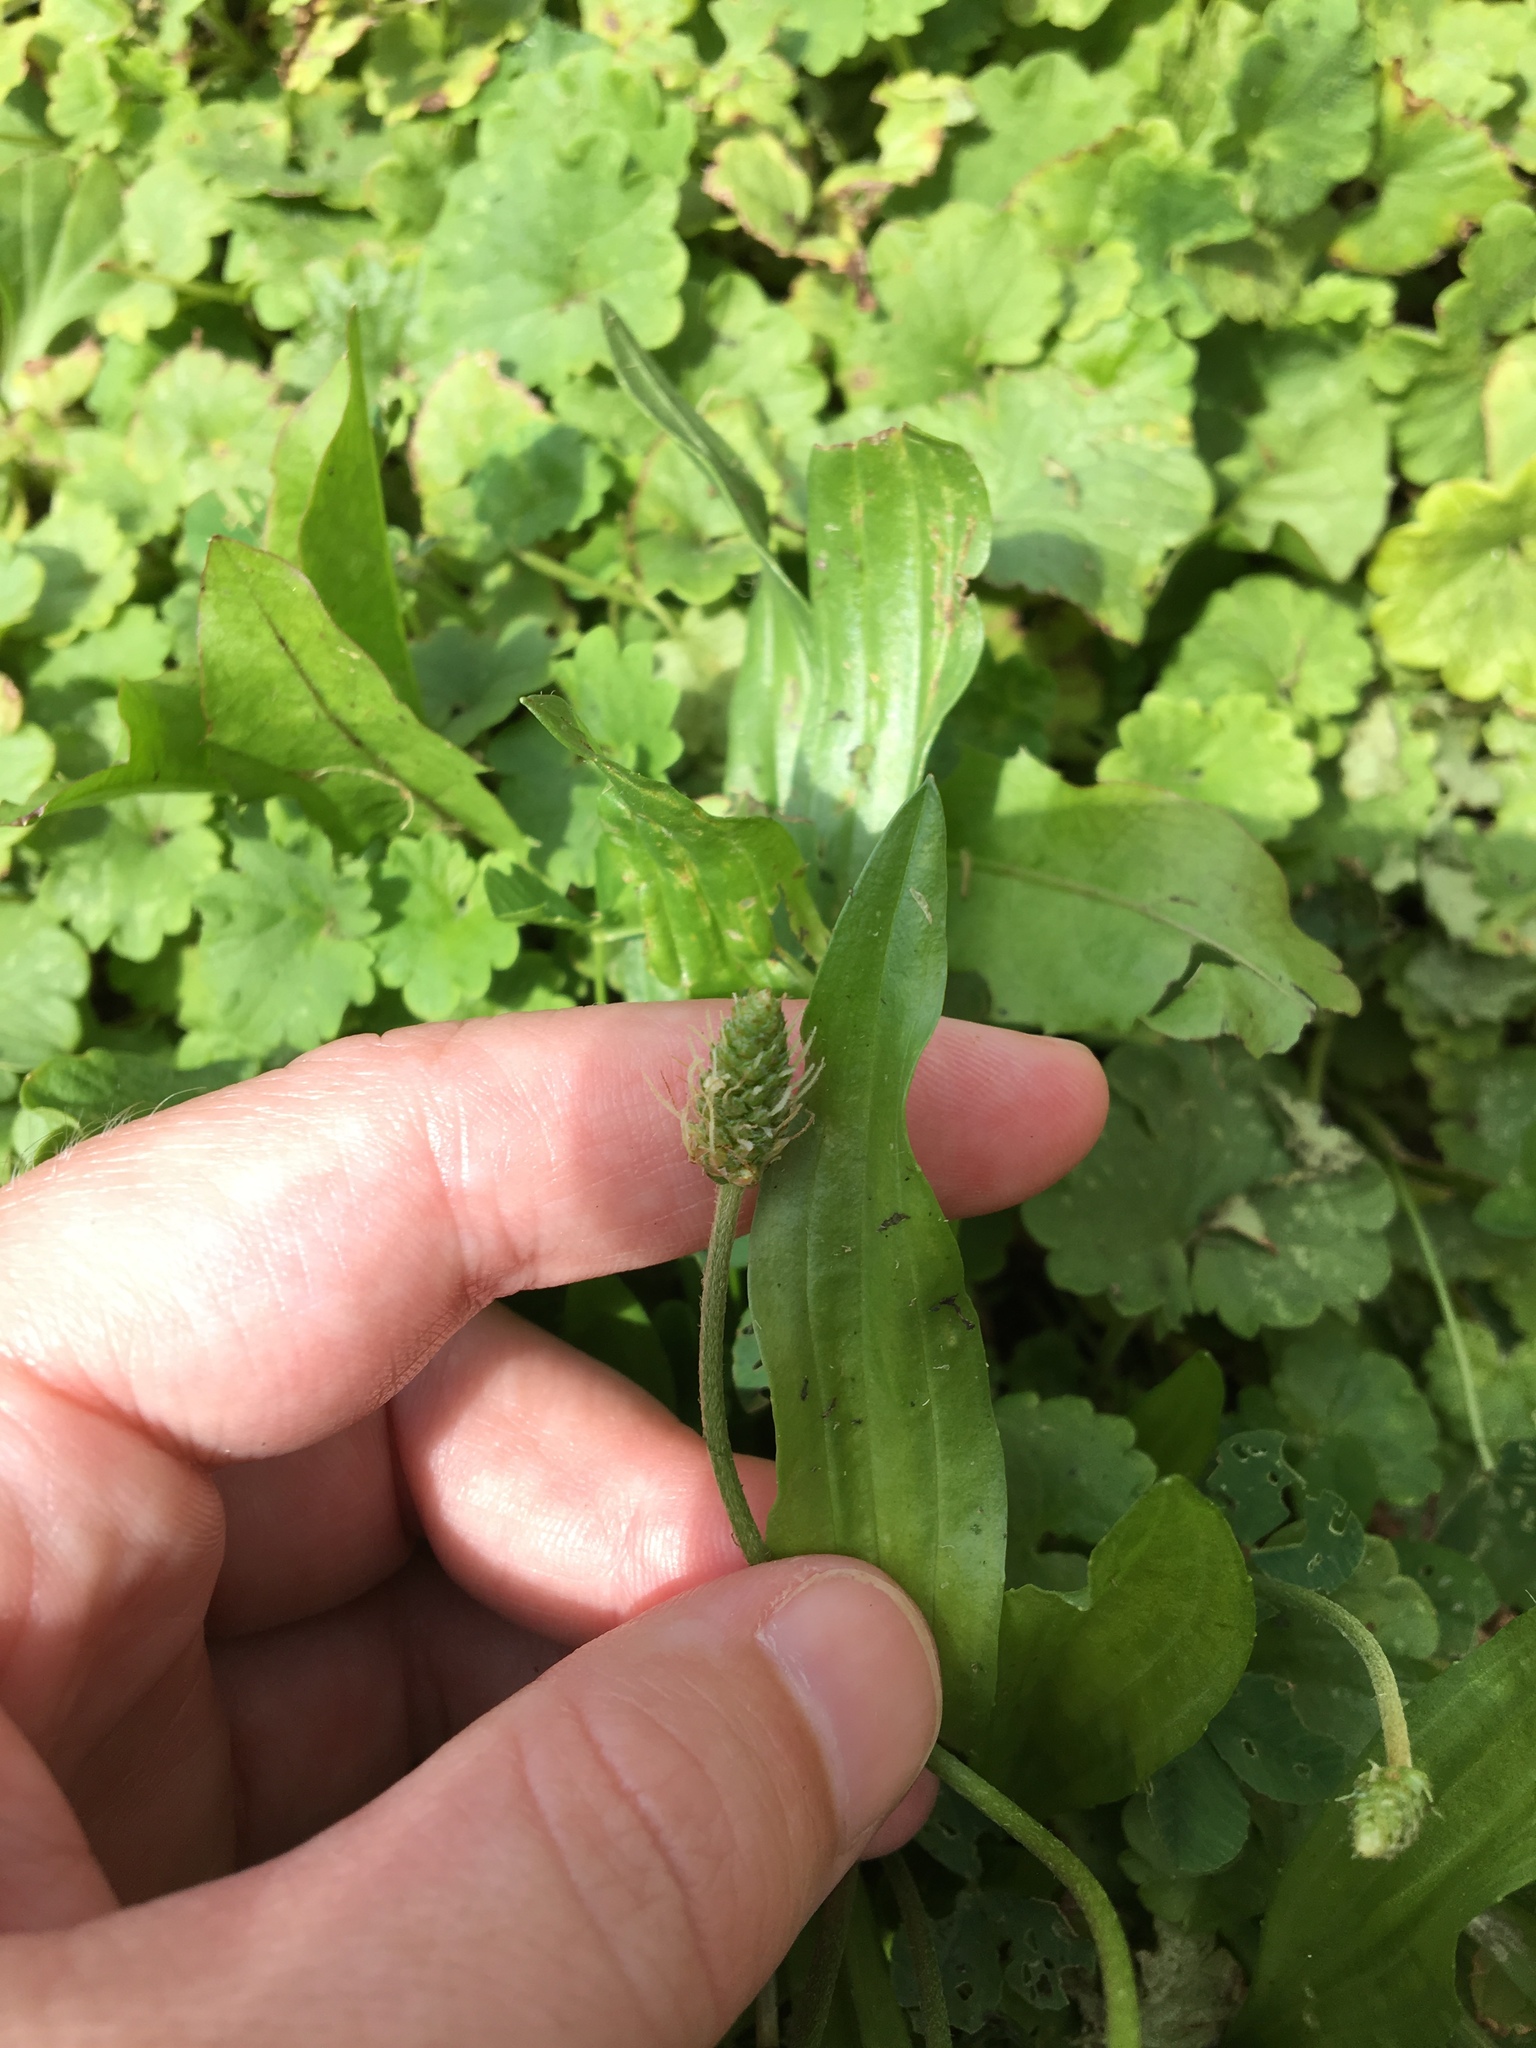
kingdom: Plantae
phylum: Tracheophyta
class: Magnoliopsida
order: Lamiales
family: Plantaginaceae
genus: Plantago
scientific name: Plantago lanceolata
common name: Ribwort plantain
